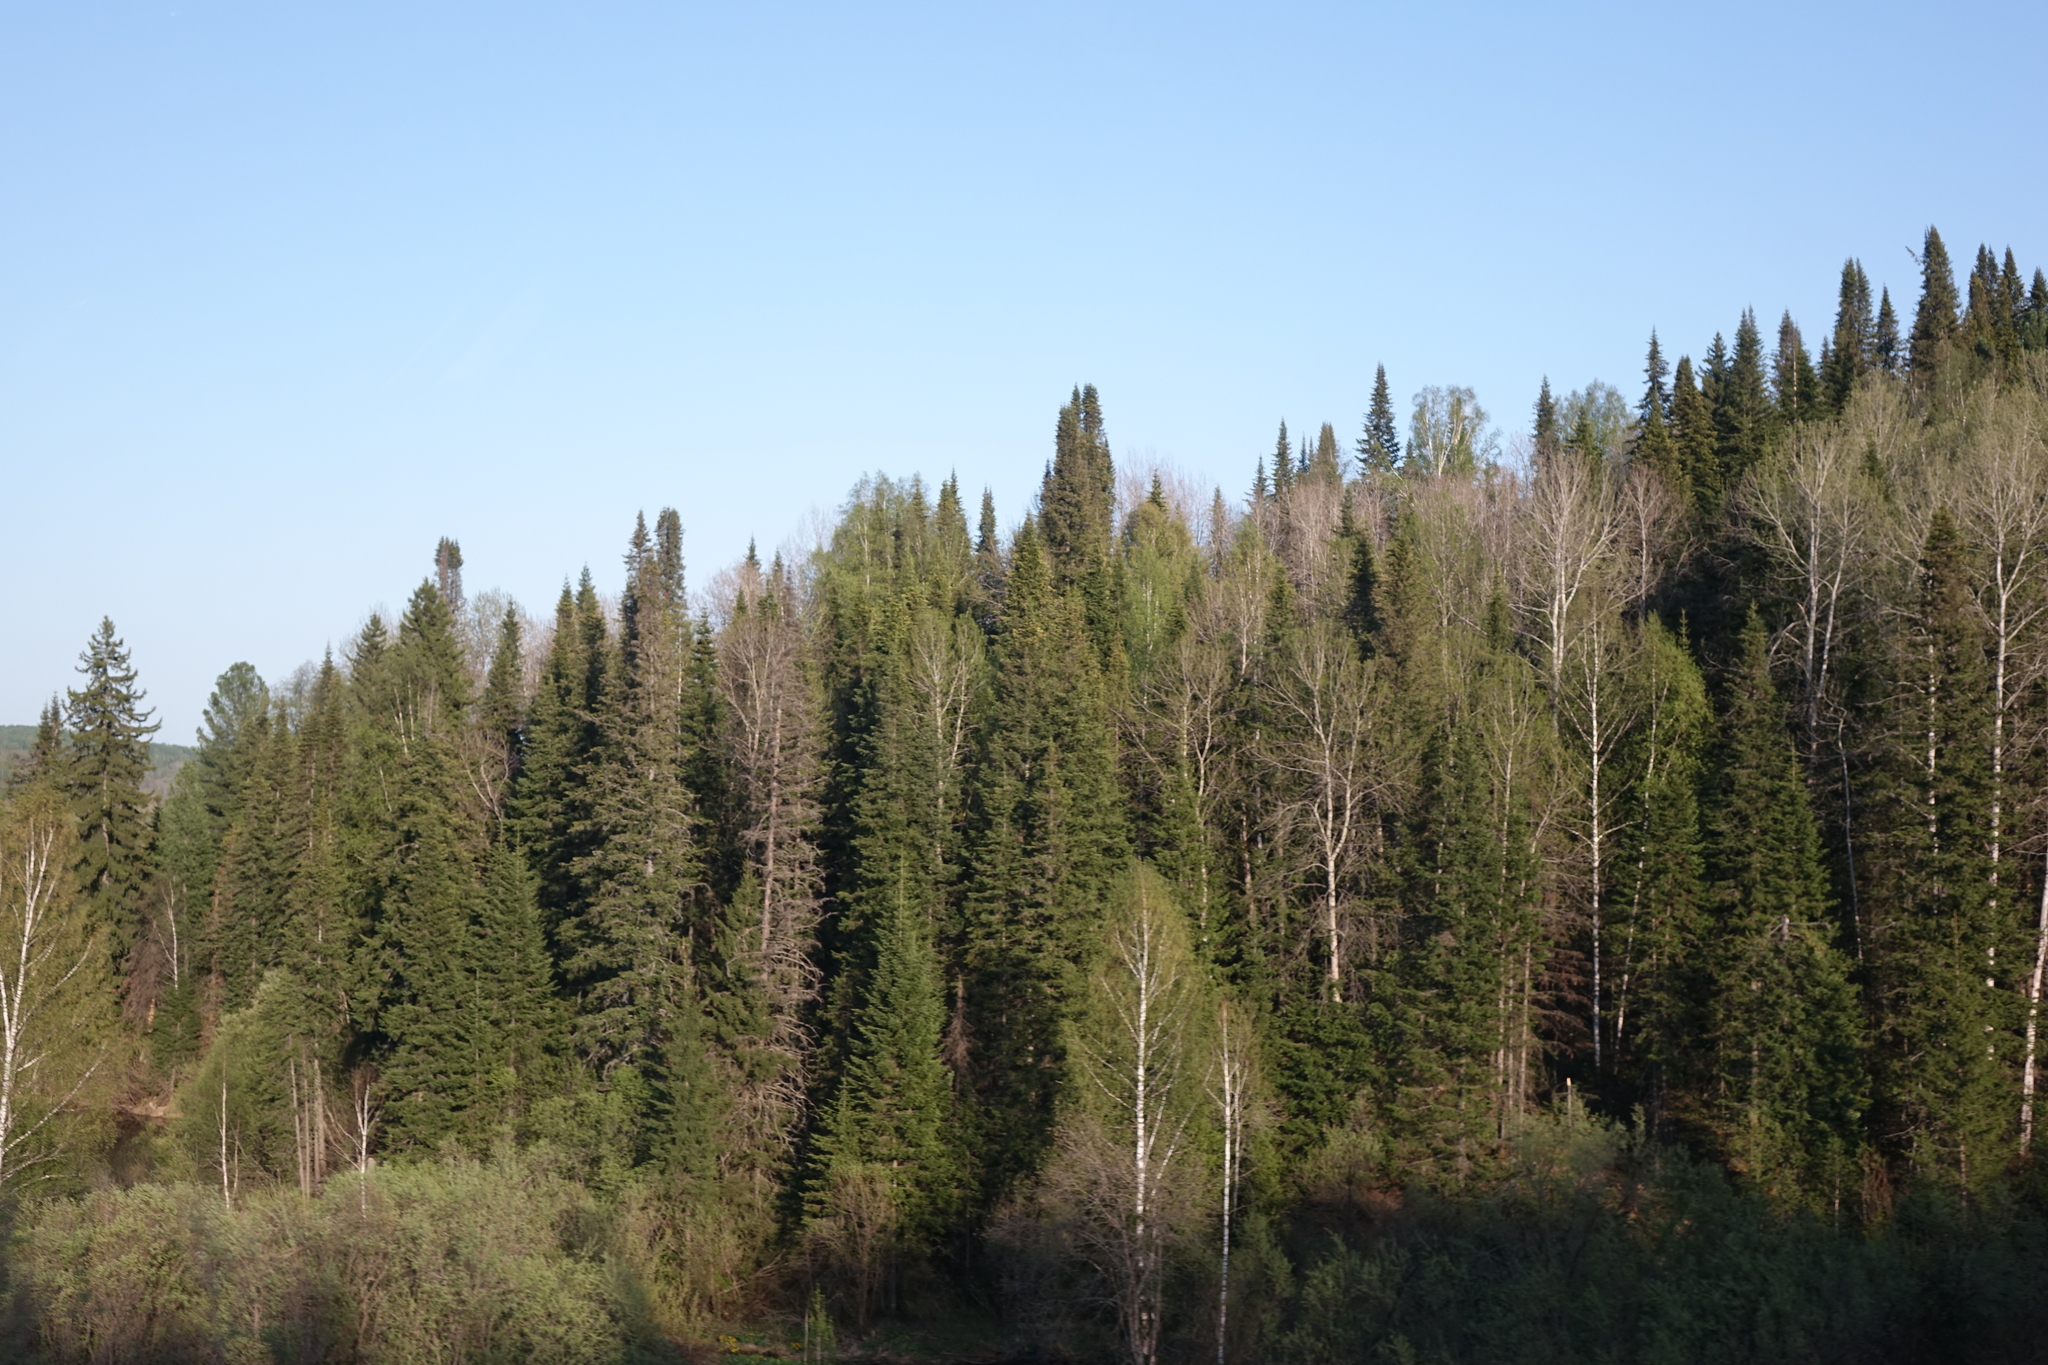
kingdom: Plantae
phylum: Tracheophyta
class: Pinopsida
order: Pinales
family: Pinaceae
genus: Abies
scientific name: Abies sibirica
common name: Siberian fir
